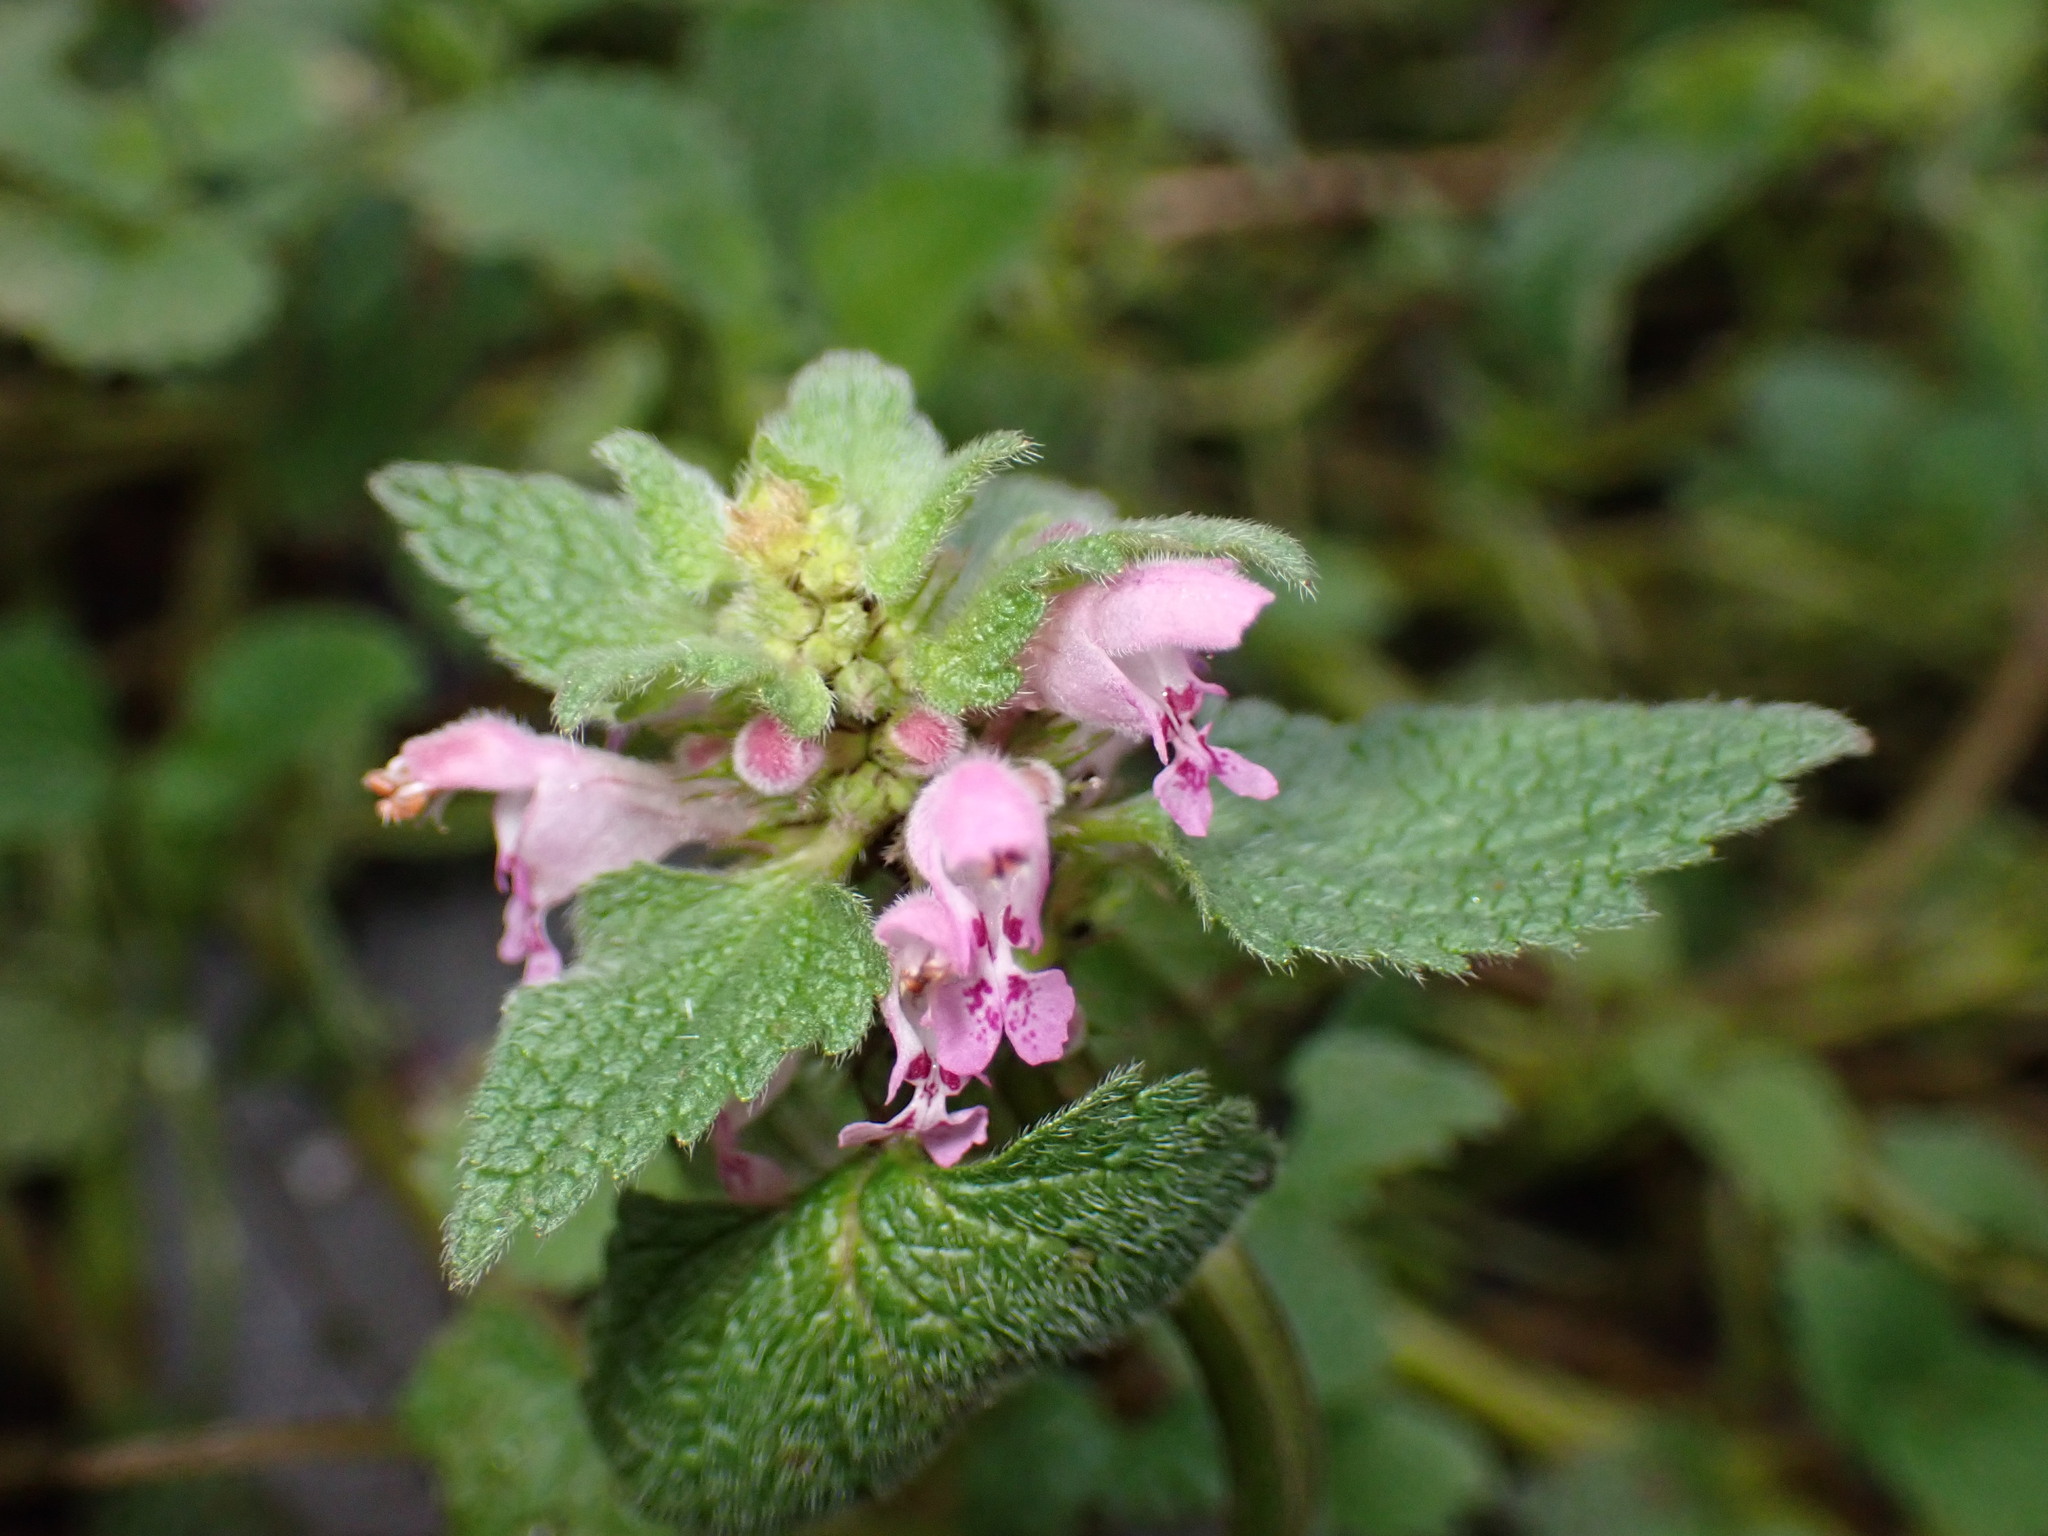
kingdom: Plantae
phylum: Tracheophyta
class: Magnoliopsida
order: Lamiales
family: Lamiaceae
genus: Lamium
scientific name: Lamium purpureum
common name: Red dead-nettle
